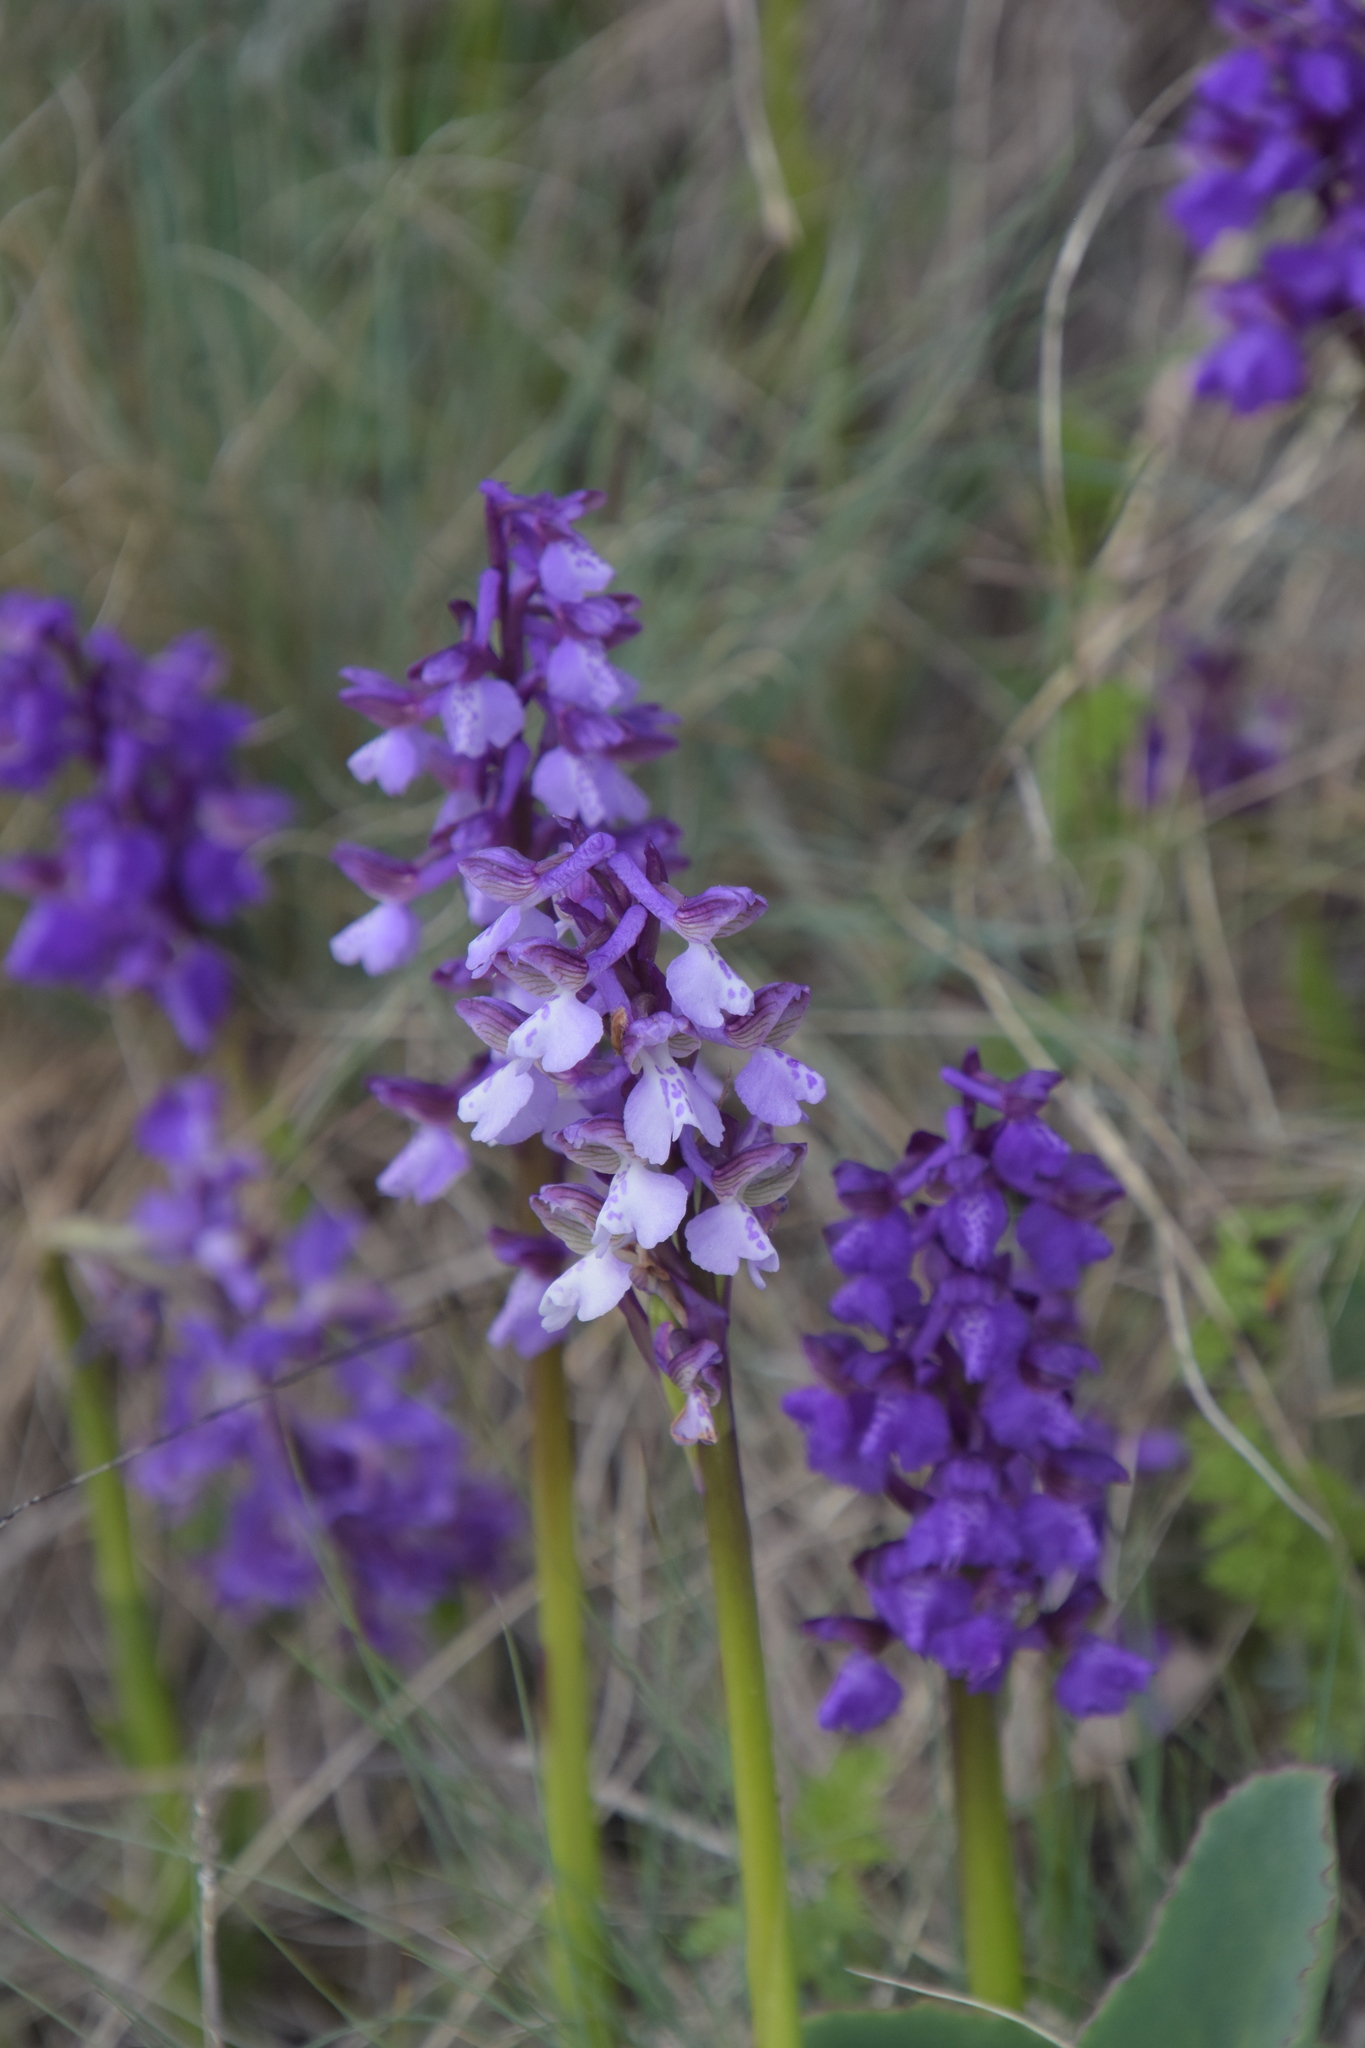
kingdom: Plantae
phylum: Tracheophyta
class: Liliopsida
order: Asparagales
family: Orchidaceae
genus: Anacamptis
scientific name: Anacamptis morio
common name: Green-winged orchid
